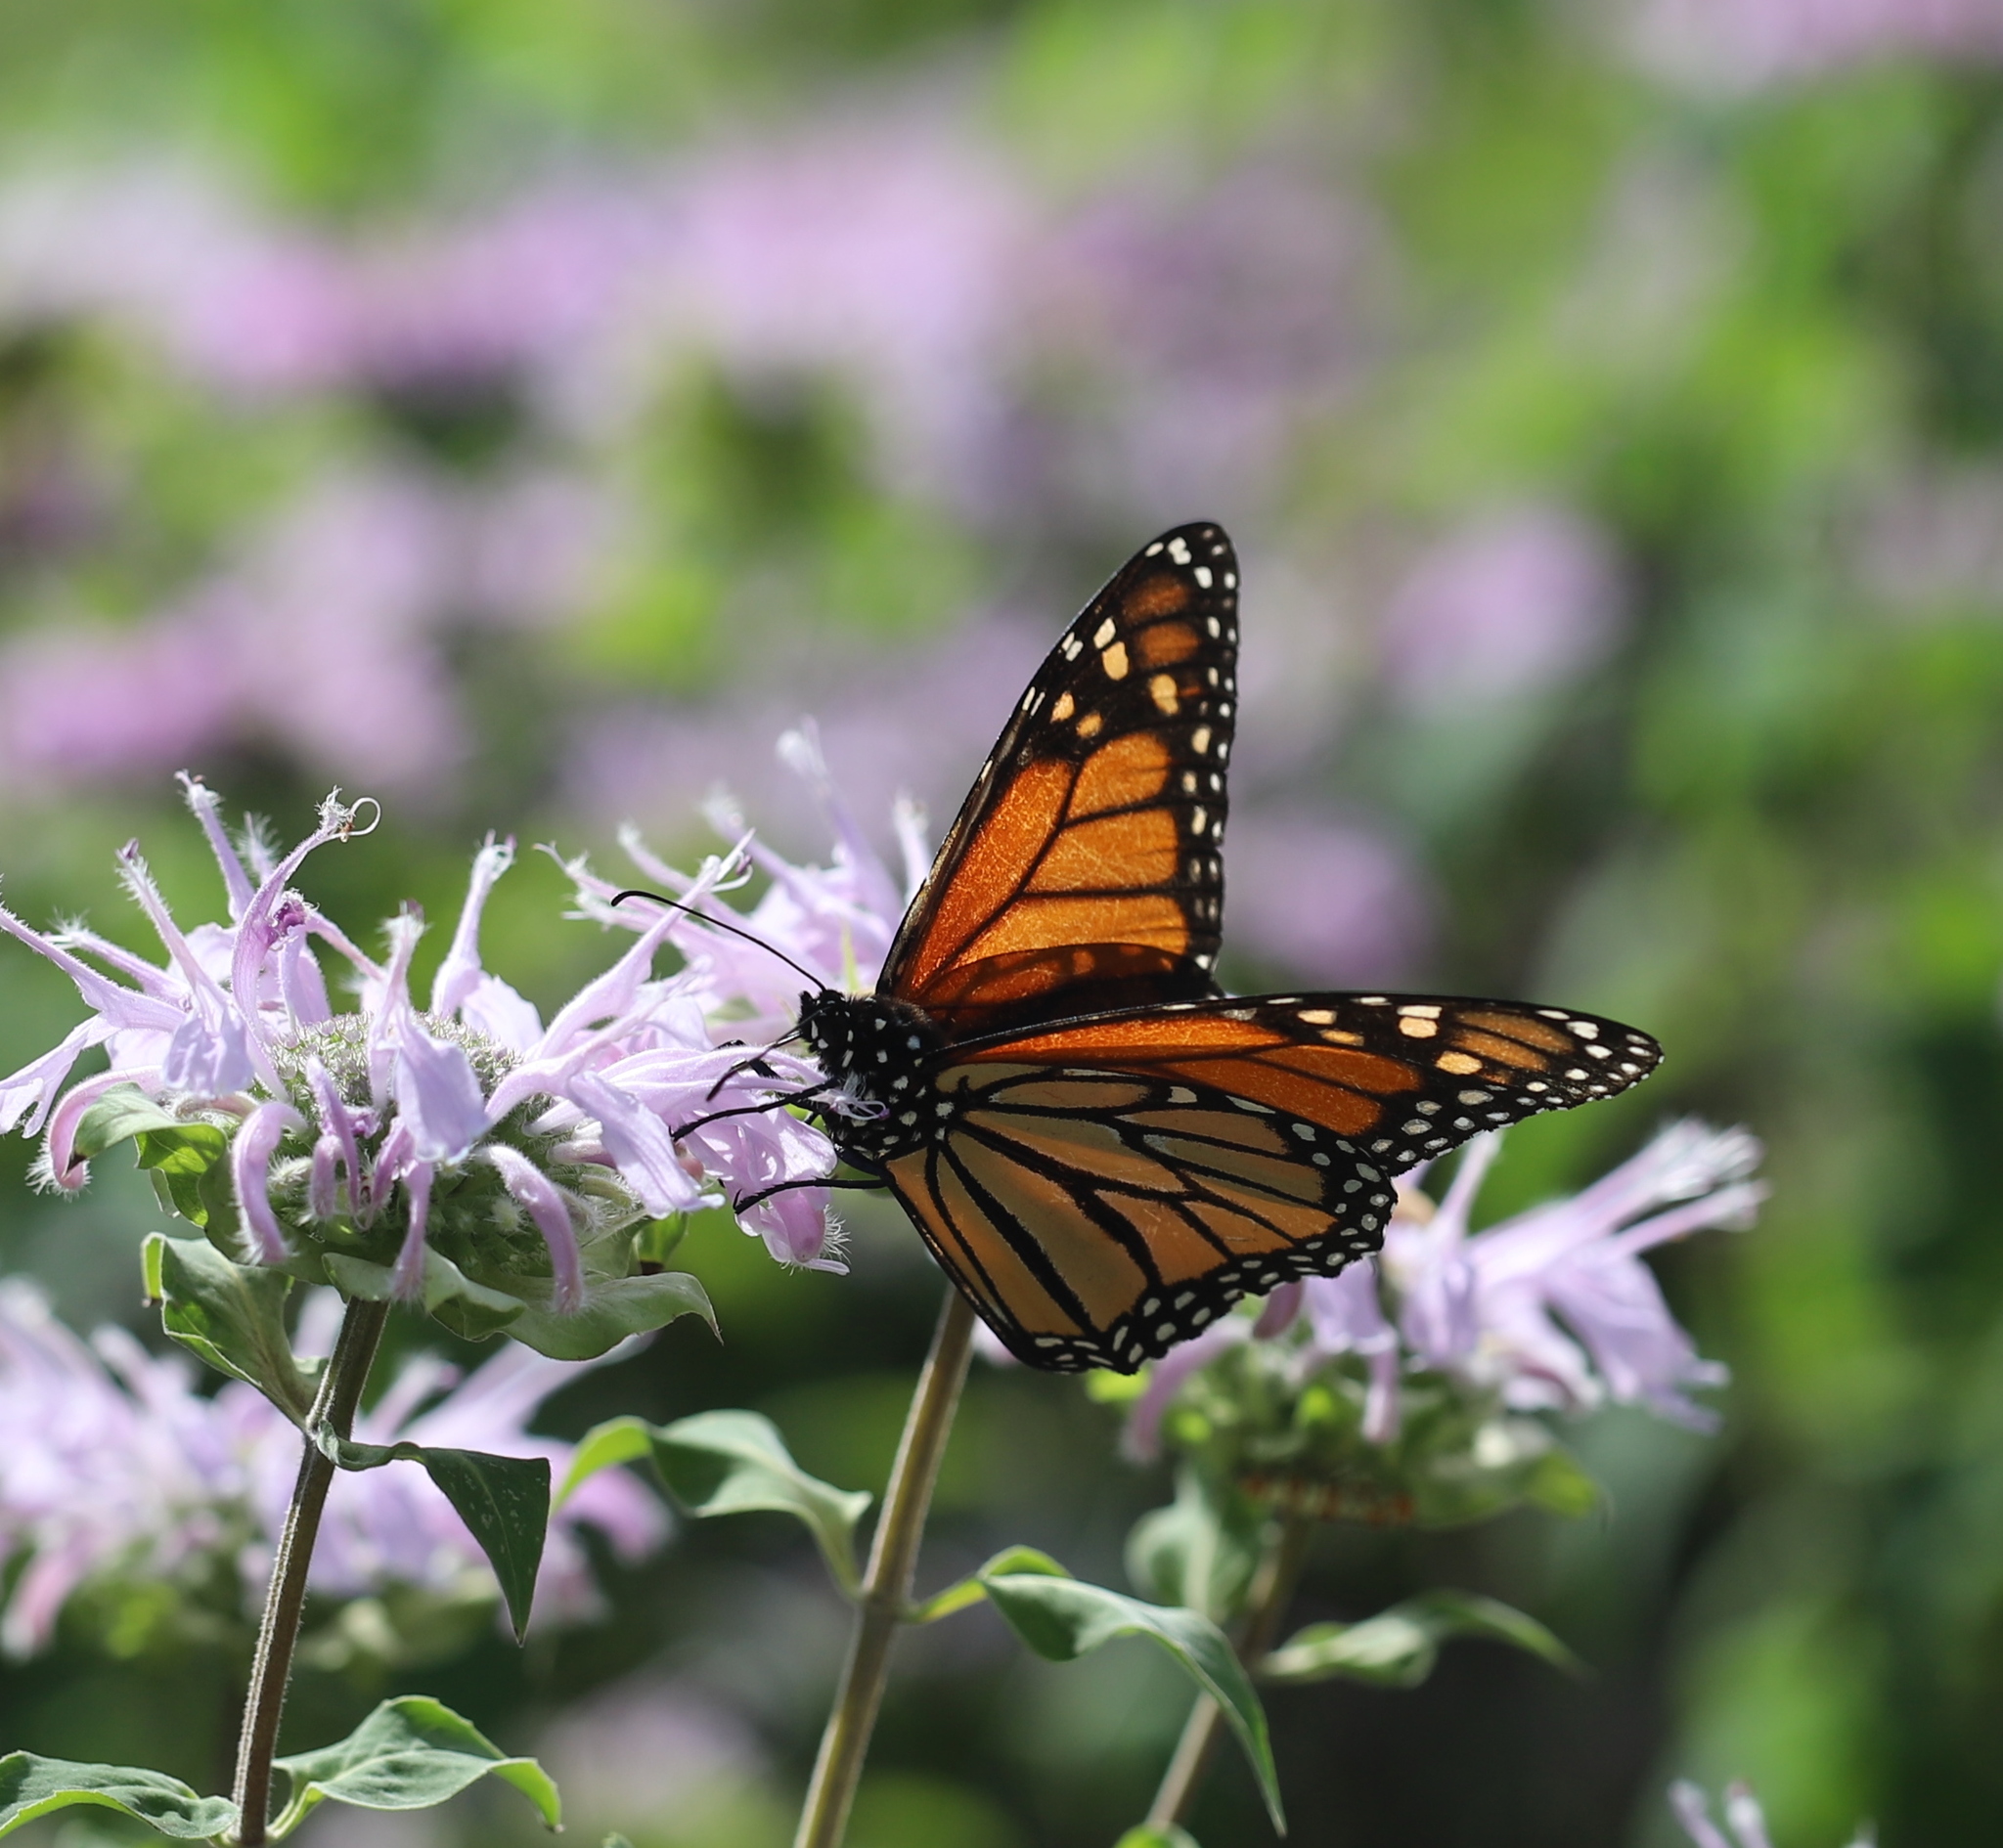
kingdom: Animalia
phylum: Arthropoda
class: Insecta
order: Lepidoptera
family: Nymphalidae
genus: Danaus
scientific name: Danaus plexippus
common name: Monarch
